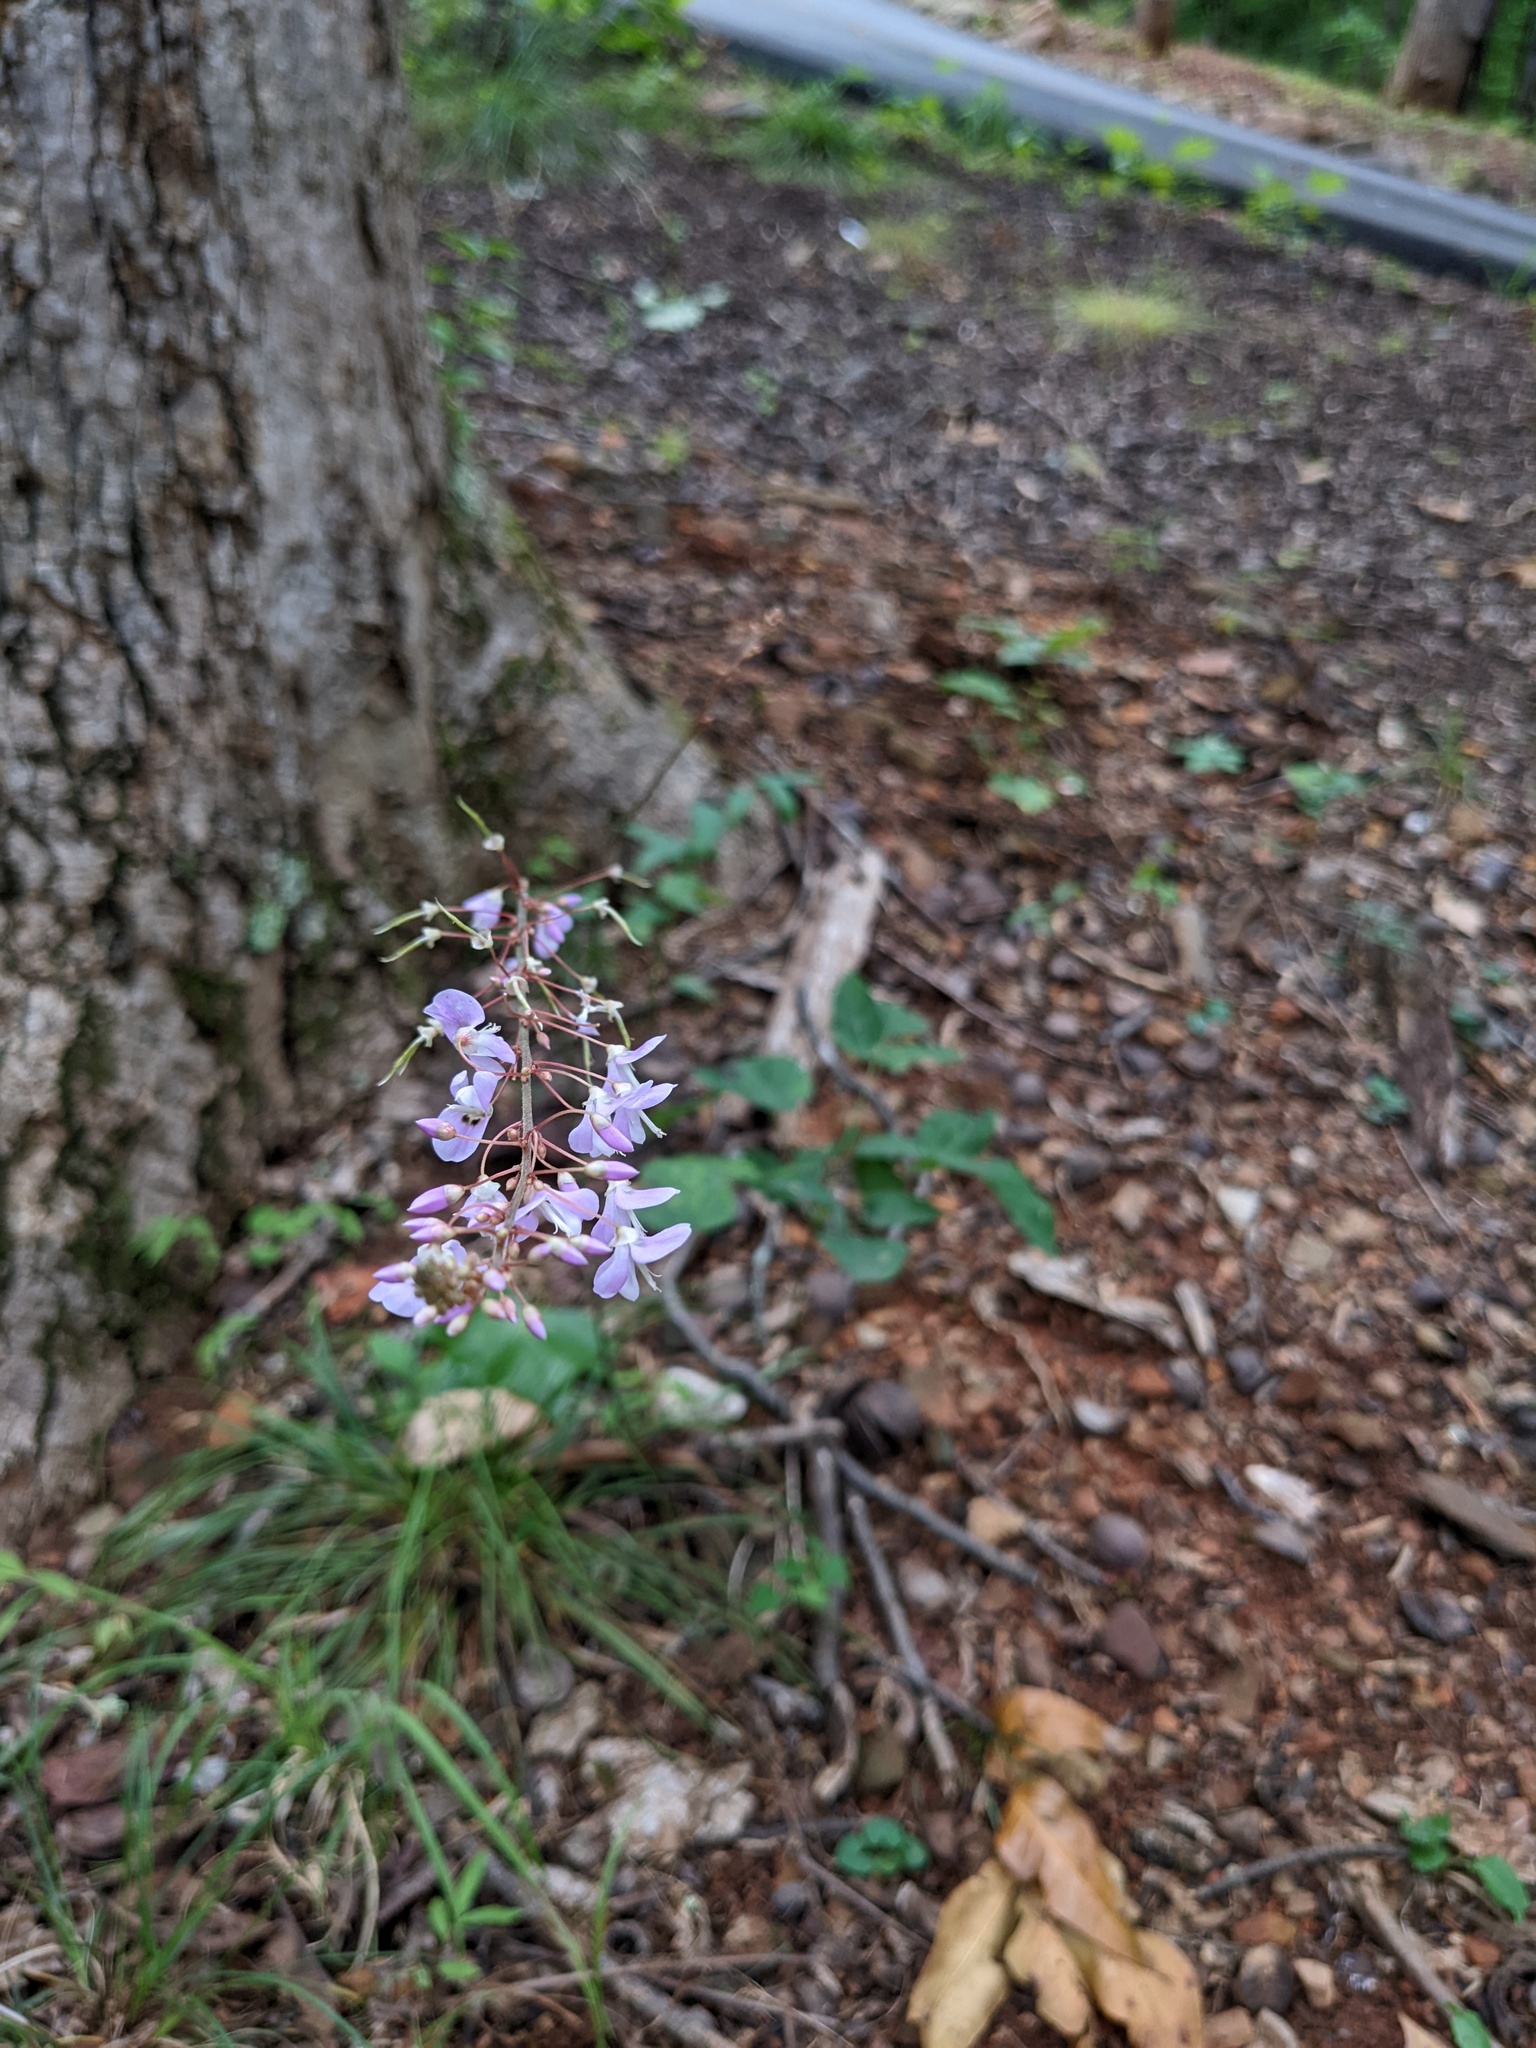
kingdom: Plantae
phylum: Tracheophyta
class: Magnoliopsida
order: Fabales
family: Fabaceae
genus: Hylodesmum
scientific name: Hylodesmum nudiflorum
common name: Bare-stemmed tick-trefoil
